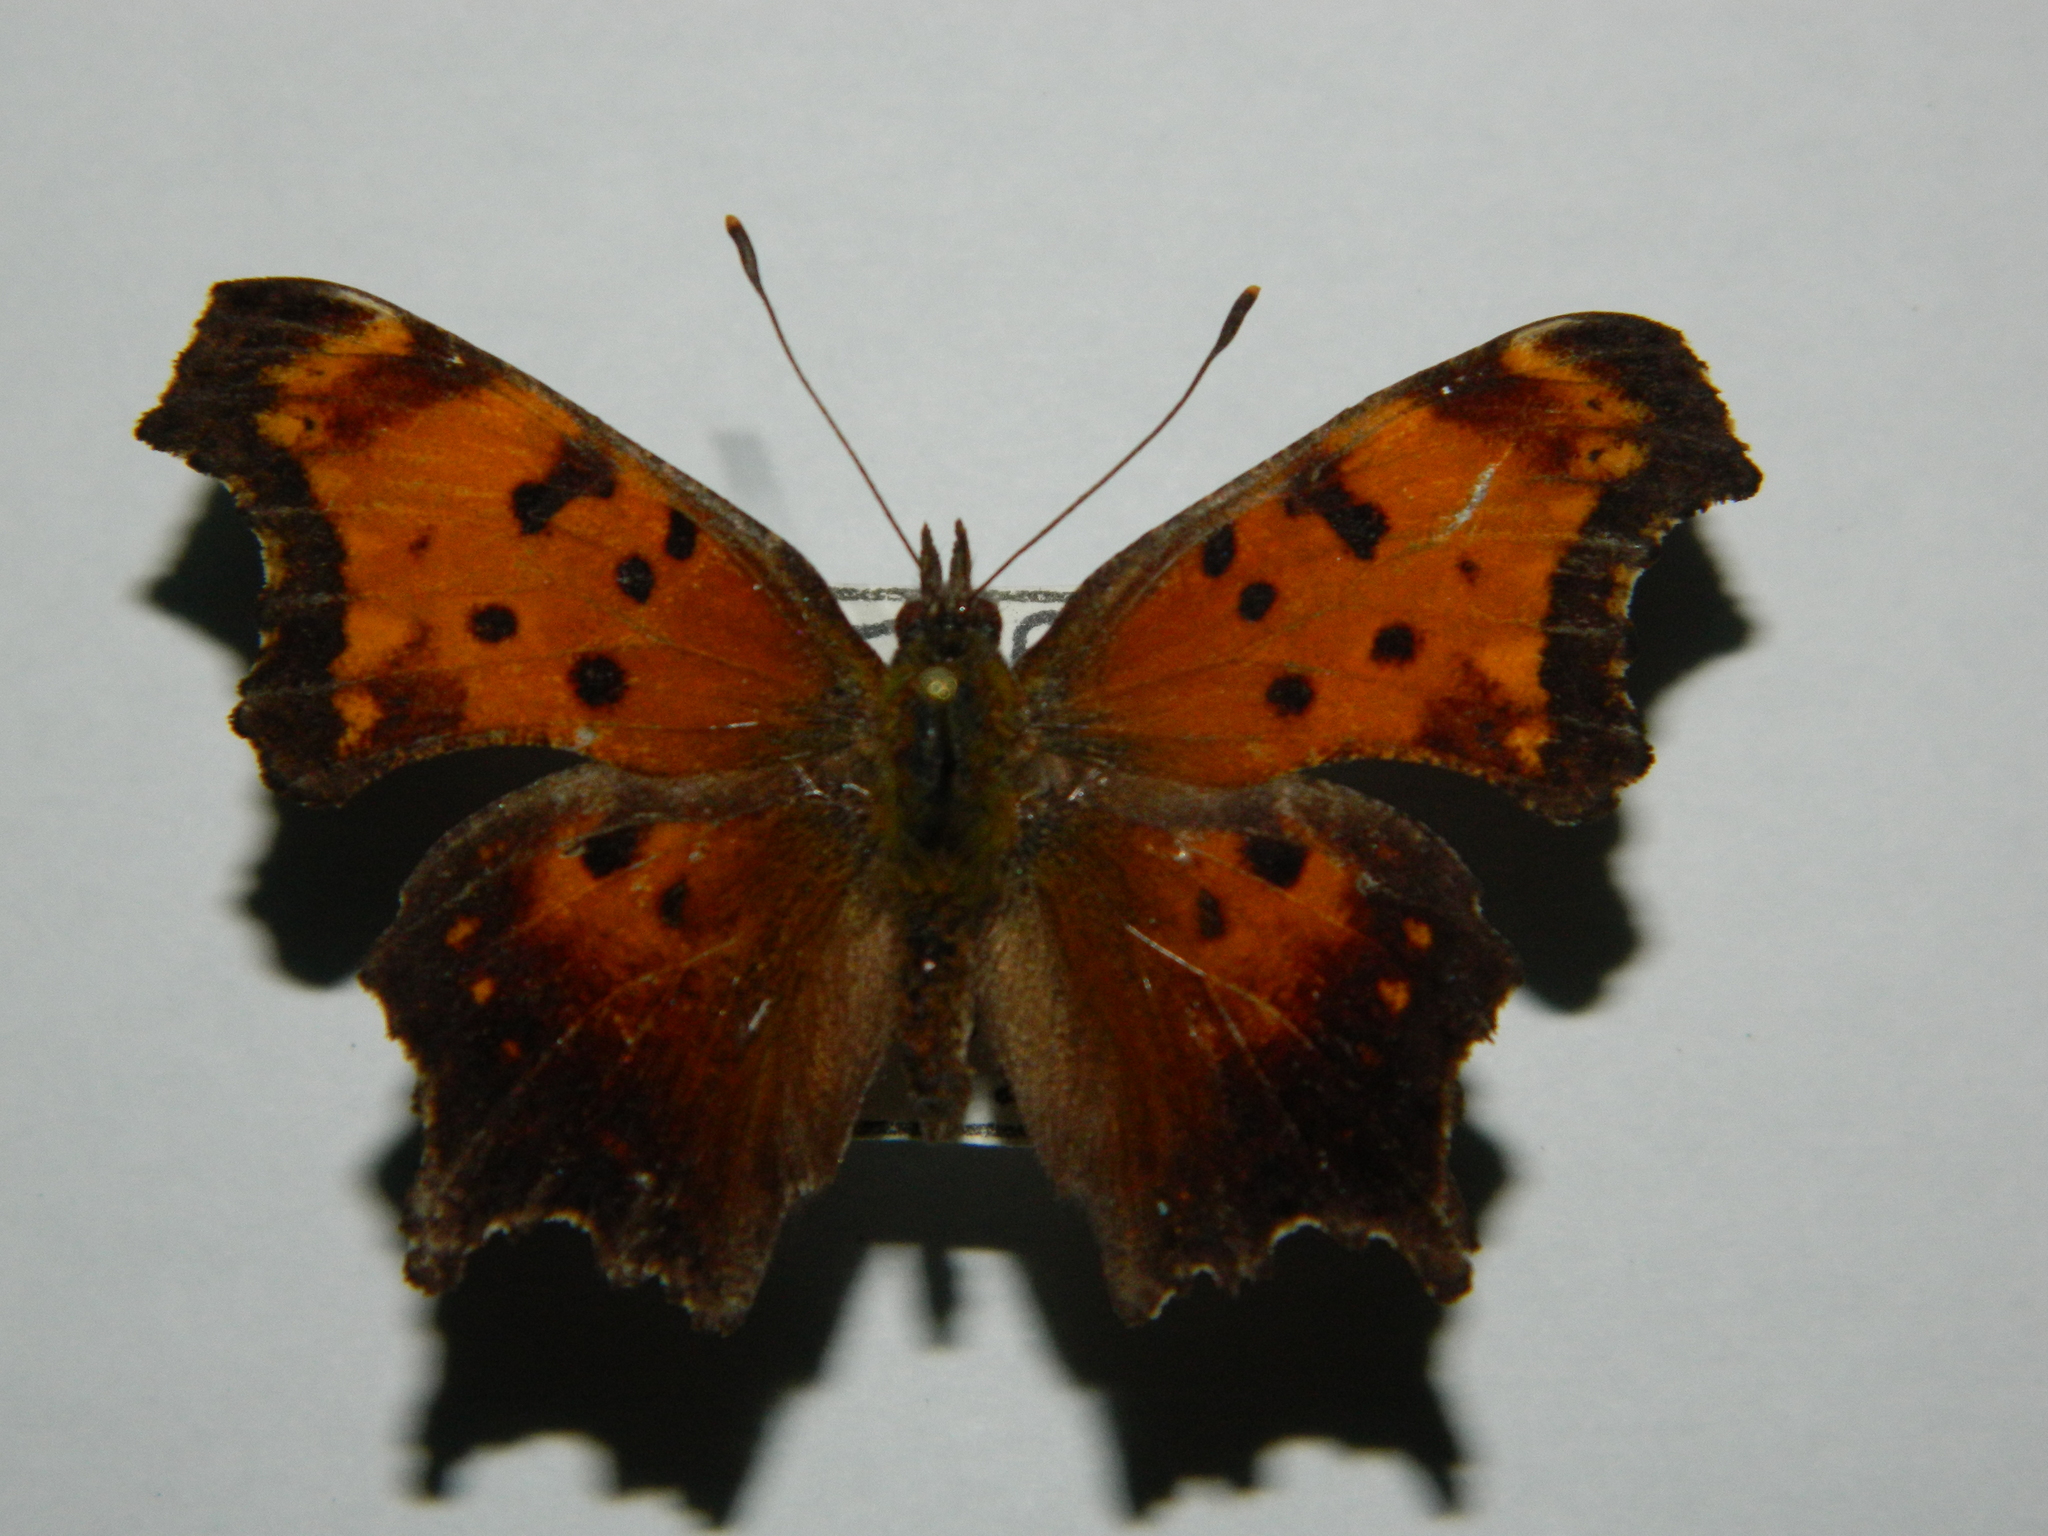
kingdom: Animalia
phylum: Arthropoda
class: Insecta
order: Lepidoptera
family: Nymphalidae
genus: Polygonia
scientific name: Polygonia progne
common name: Gray comma
